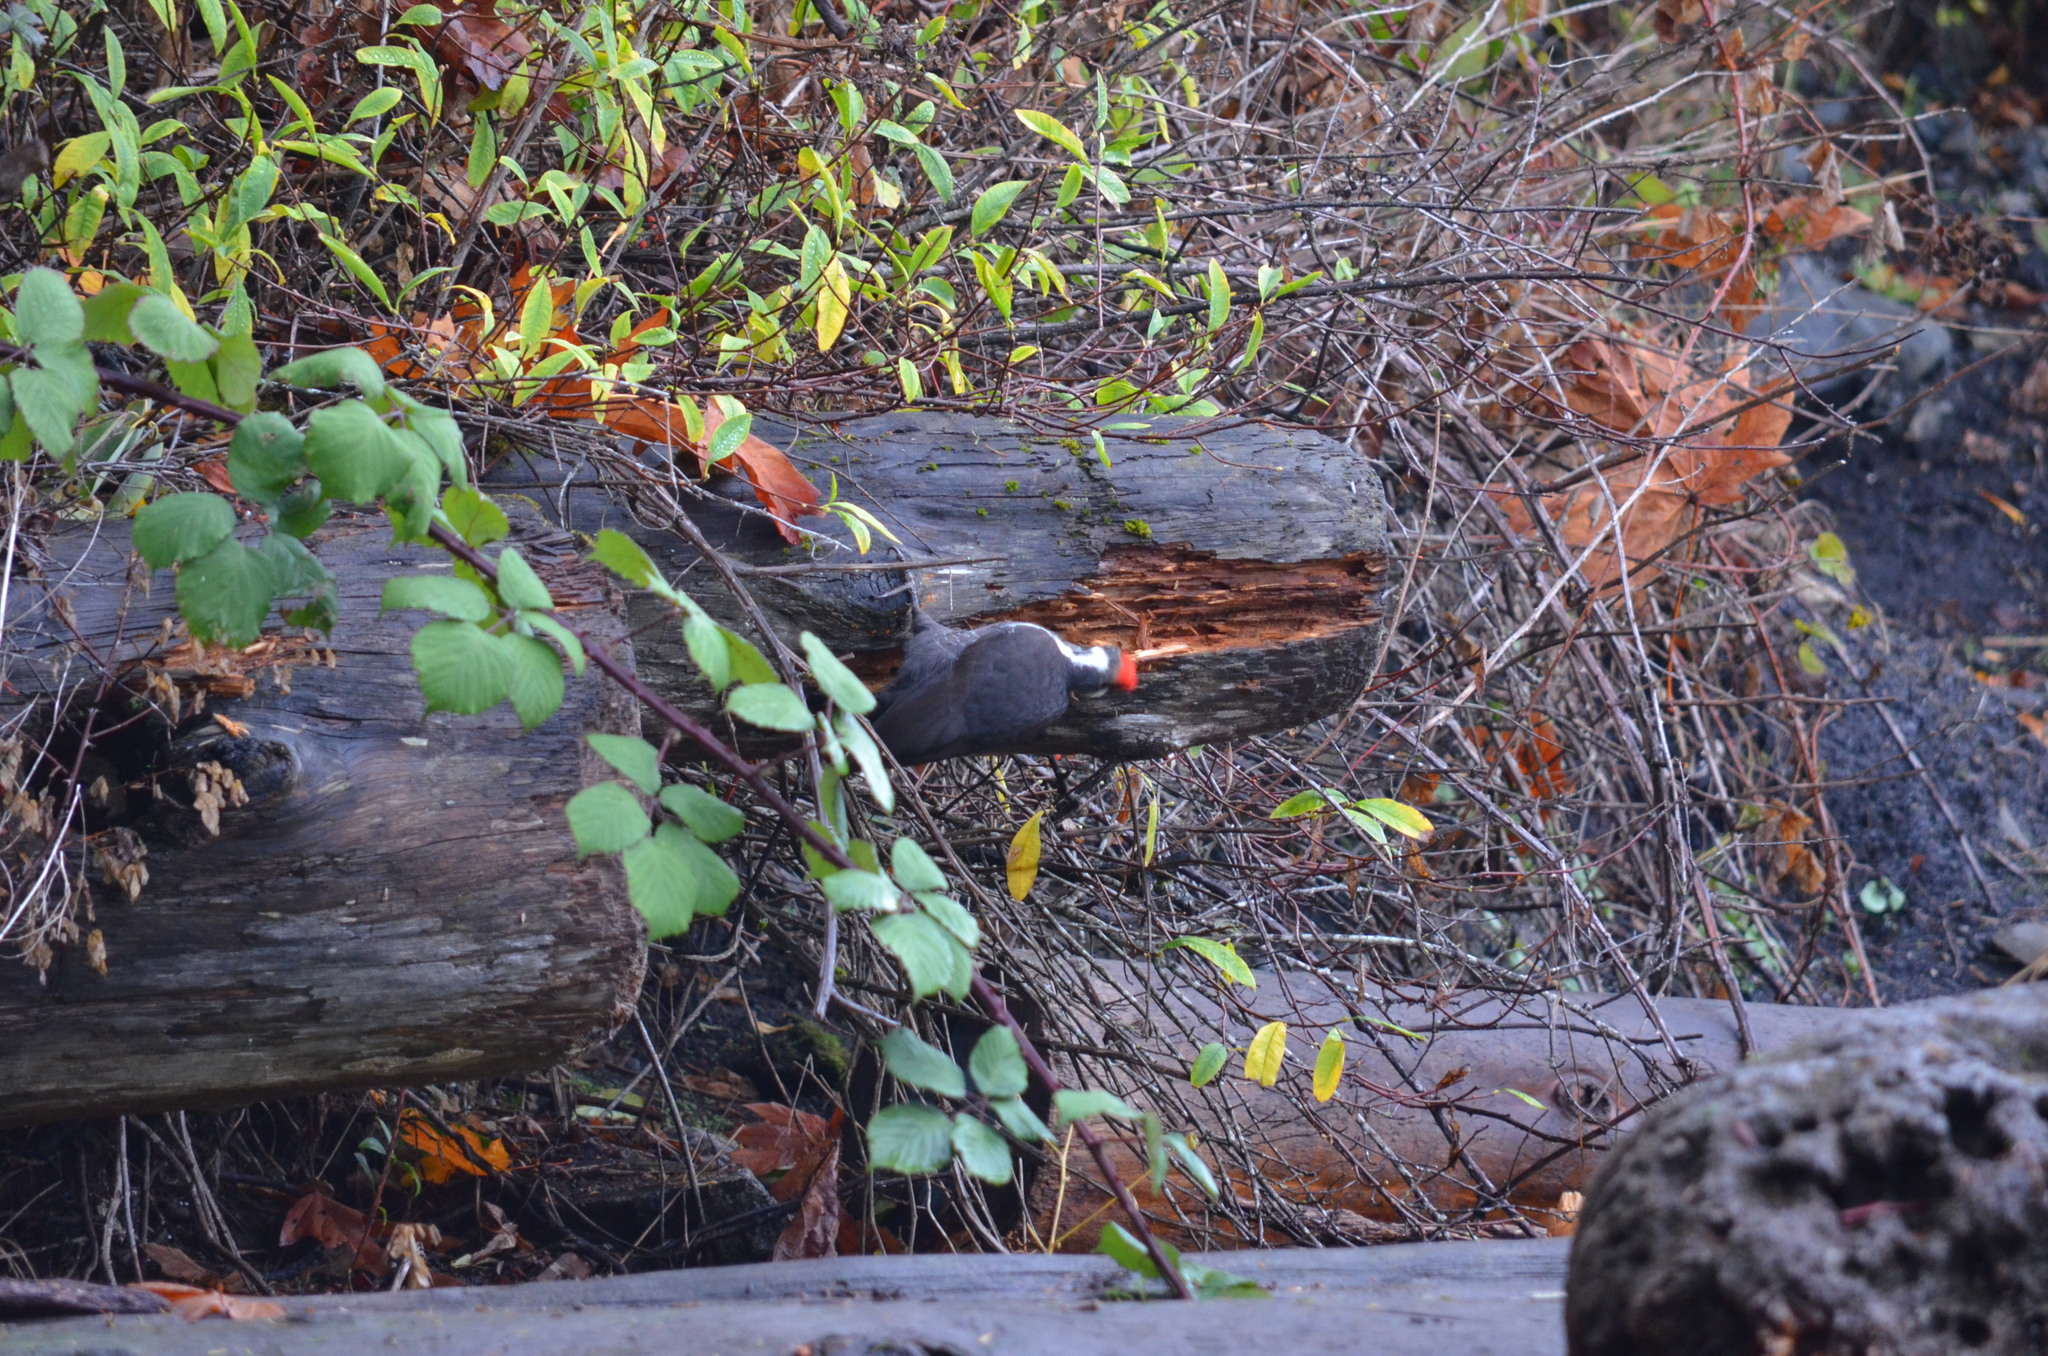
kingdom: Animalia
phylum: Chordata
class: Aves
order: Piciformes
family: Picidae
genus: Dryocopus
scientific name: Dryocopus pileatus
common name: Pileated woodpecker
